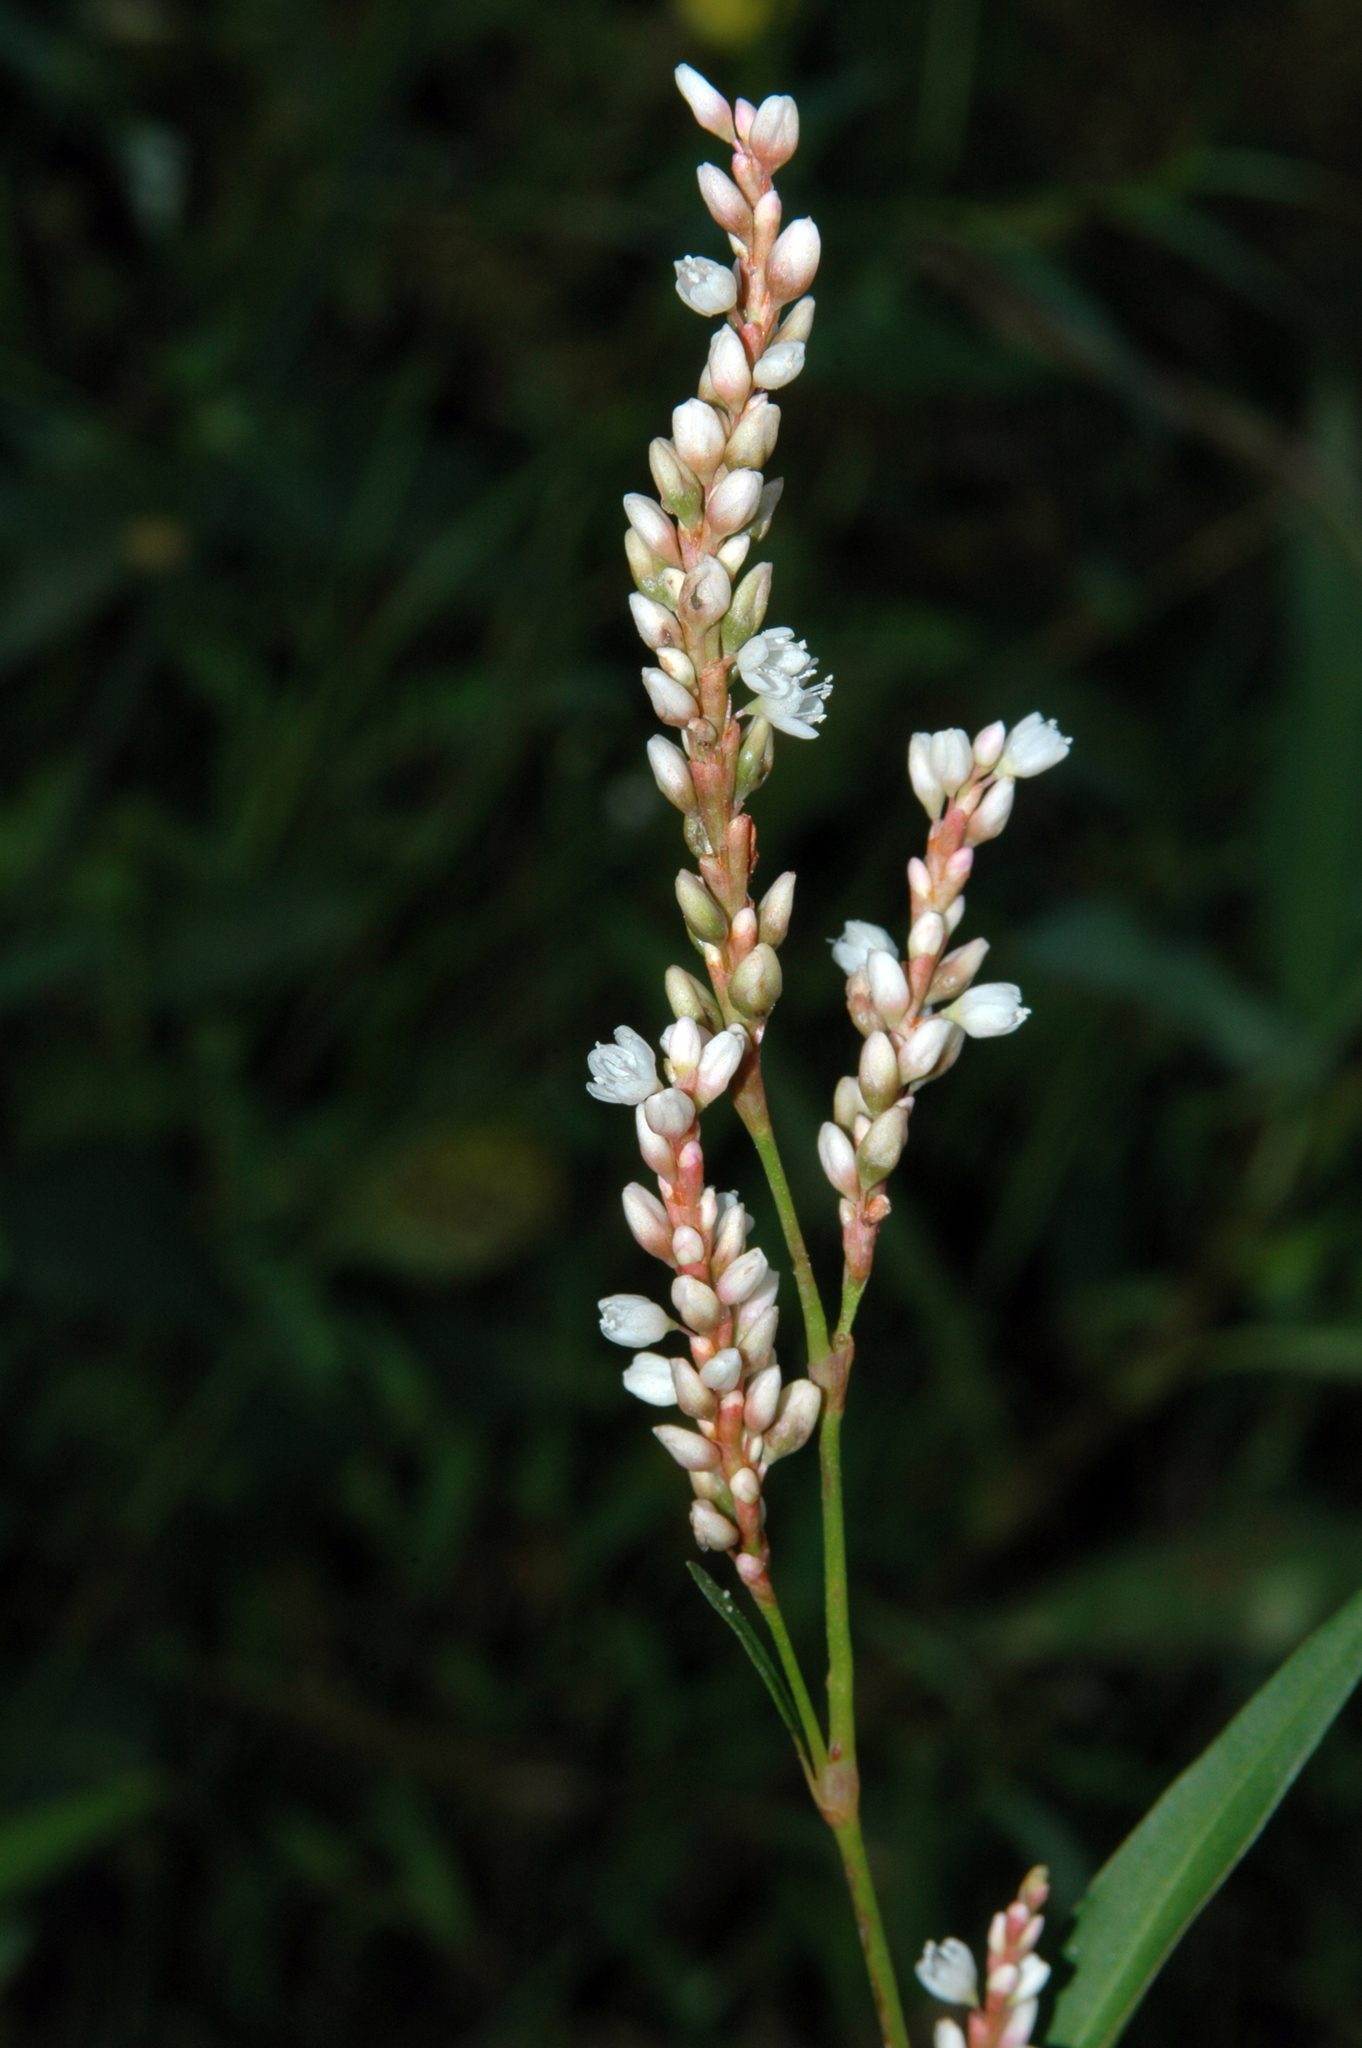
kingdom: Plantae
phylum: Tracheophyta
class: Magnoliopsida
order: Caryophyllales
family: Polygonaceae
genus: Persicaria
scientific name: Persicaria hydropiperoides
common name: Swamp smartweed
